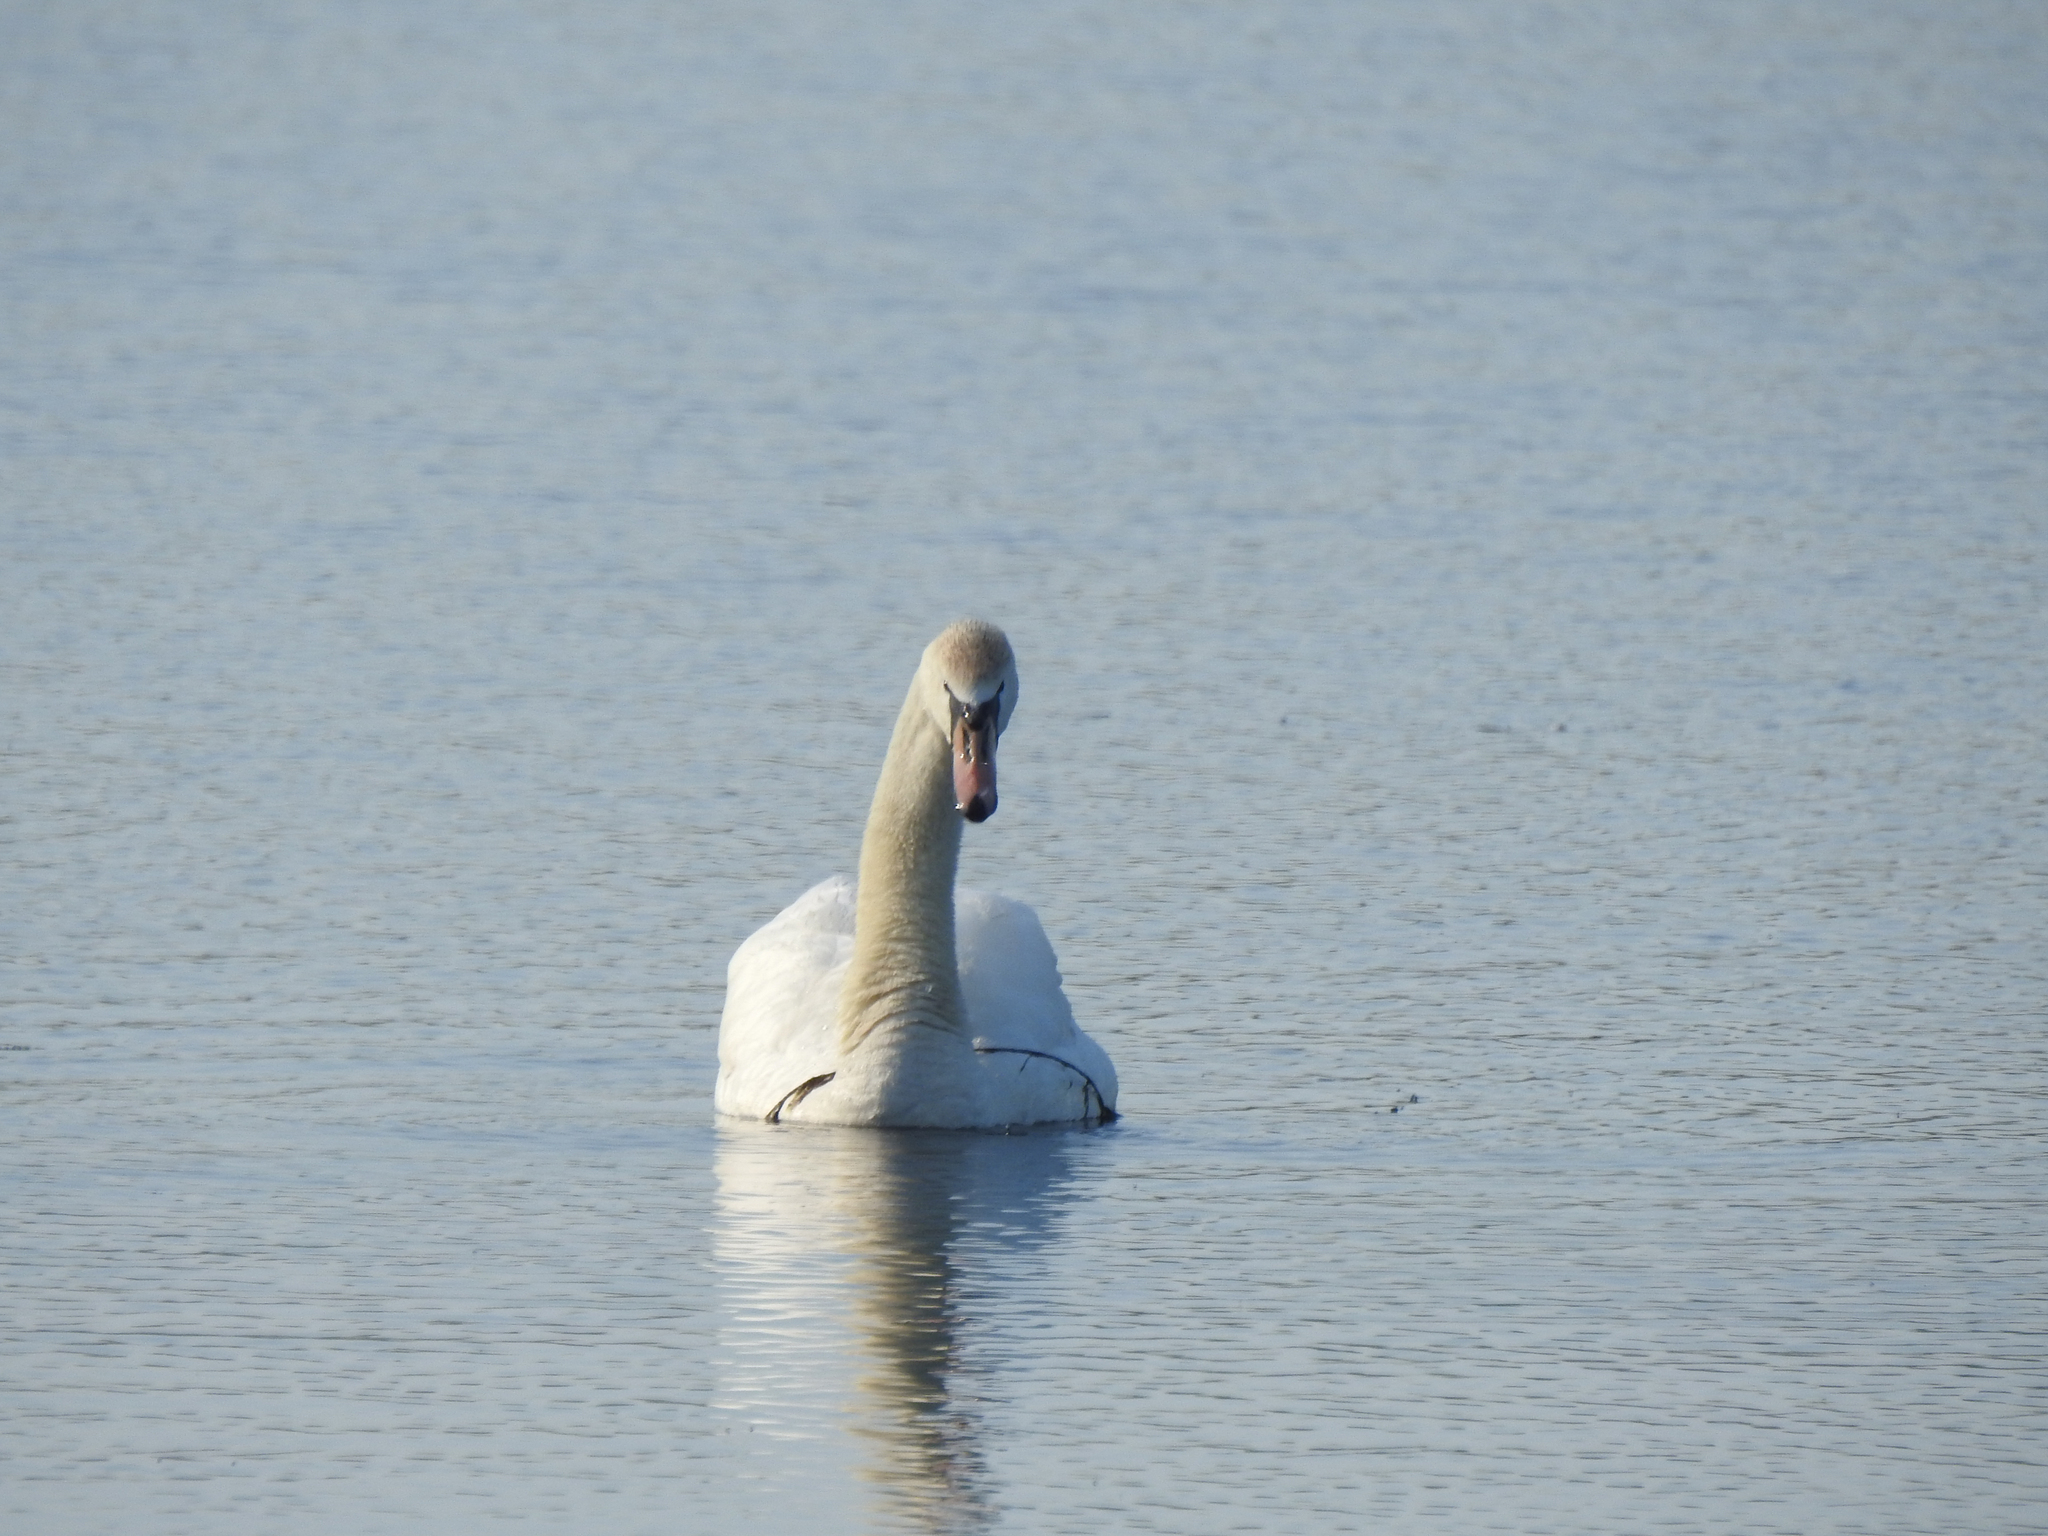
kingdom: Animalia
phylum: Chordata
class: Aves
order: Anseriformes
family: Anatidae
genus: Cygnus
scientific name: Cygnus olor
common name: Mute swan
